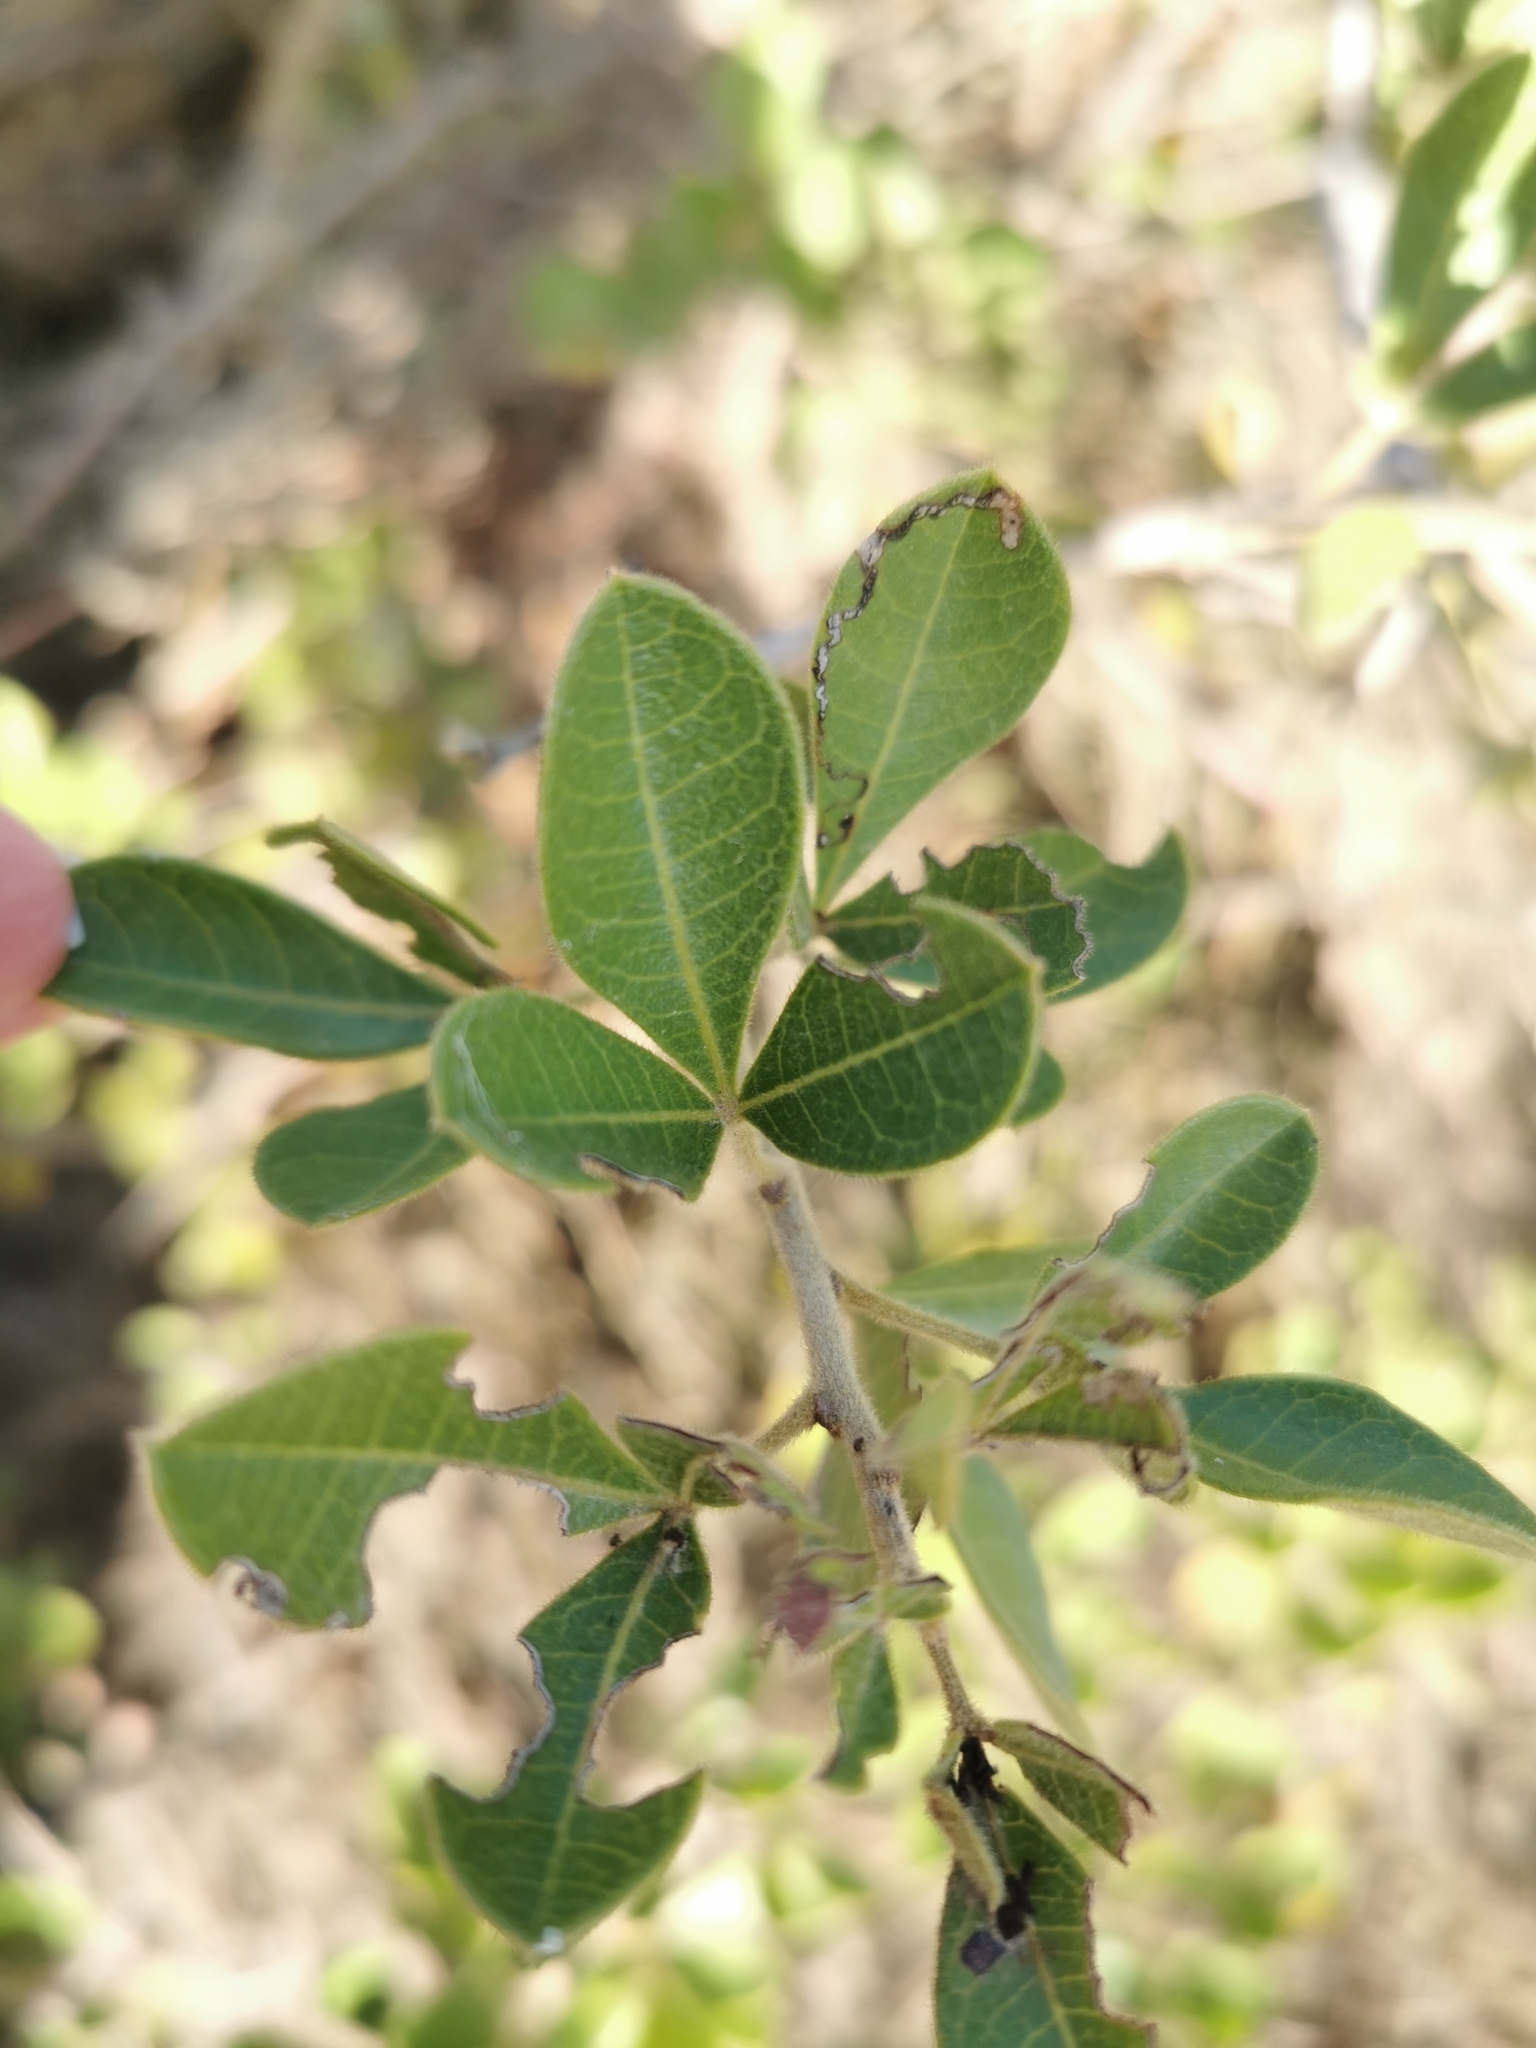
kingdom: Plantae
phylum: Tracheophyta
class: Magnoliopsida
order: Sapindales
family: Anacardiaceae
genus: Searsia
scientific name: Searsia laevigata
